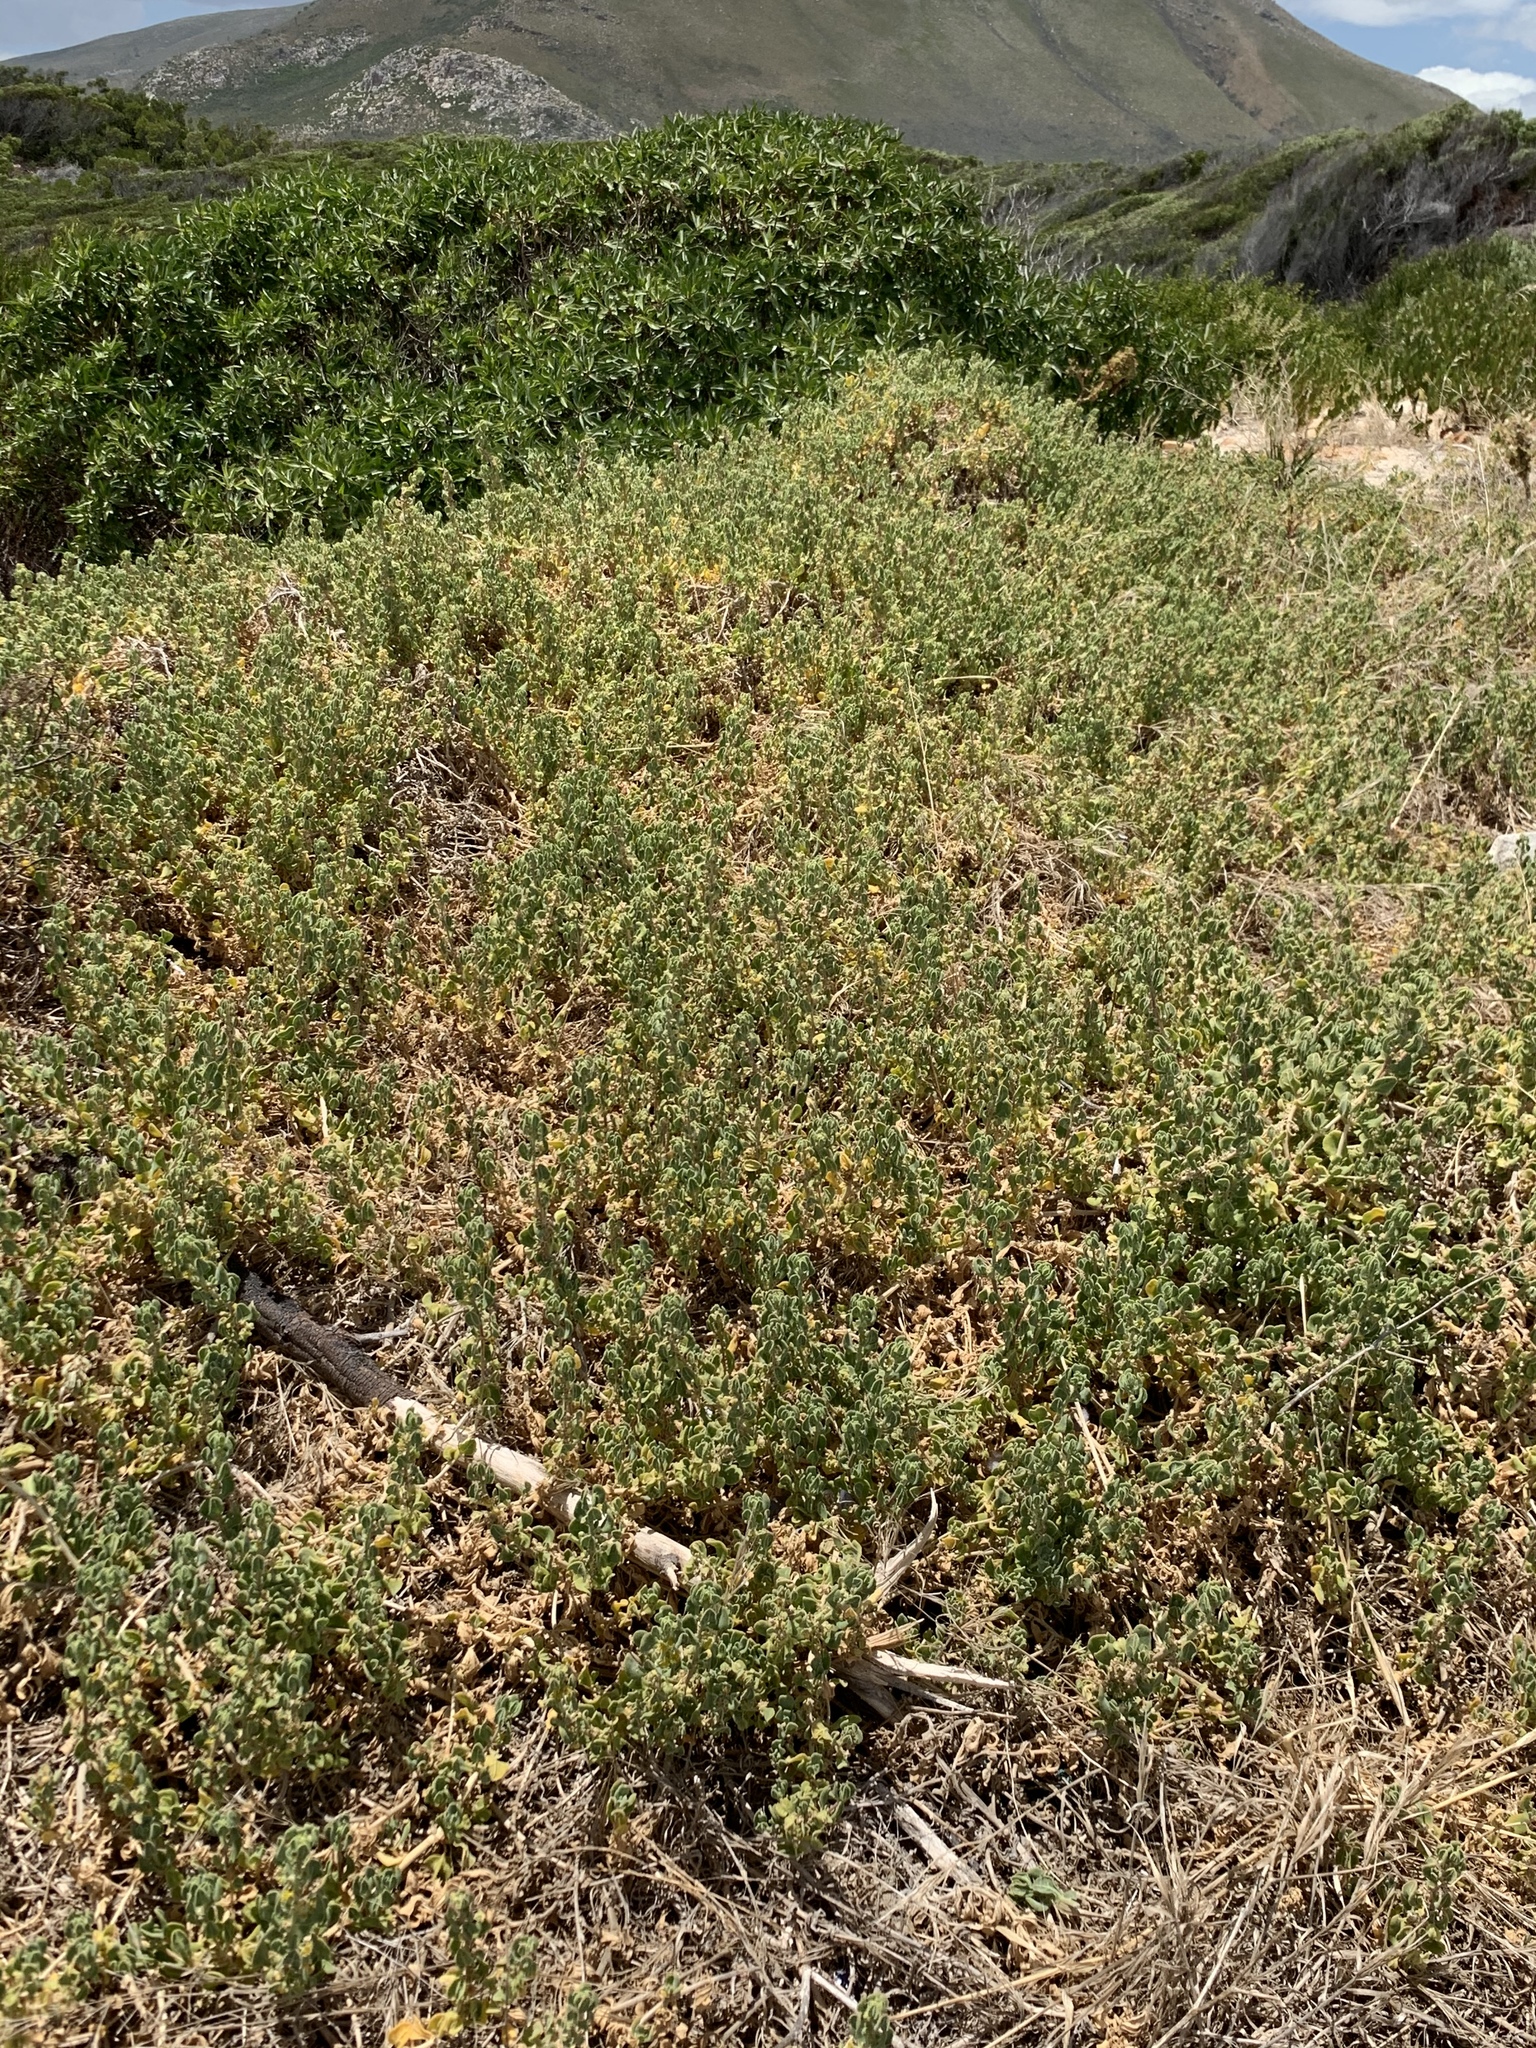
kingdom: Plantae
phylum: Tracheophyta
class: Magnoliopsida
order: Caryophyllales
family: Aizoaceae
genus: Tetragonia
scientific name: Tetragonia decumbens
